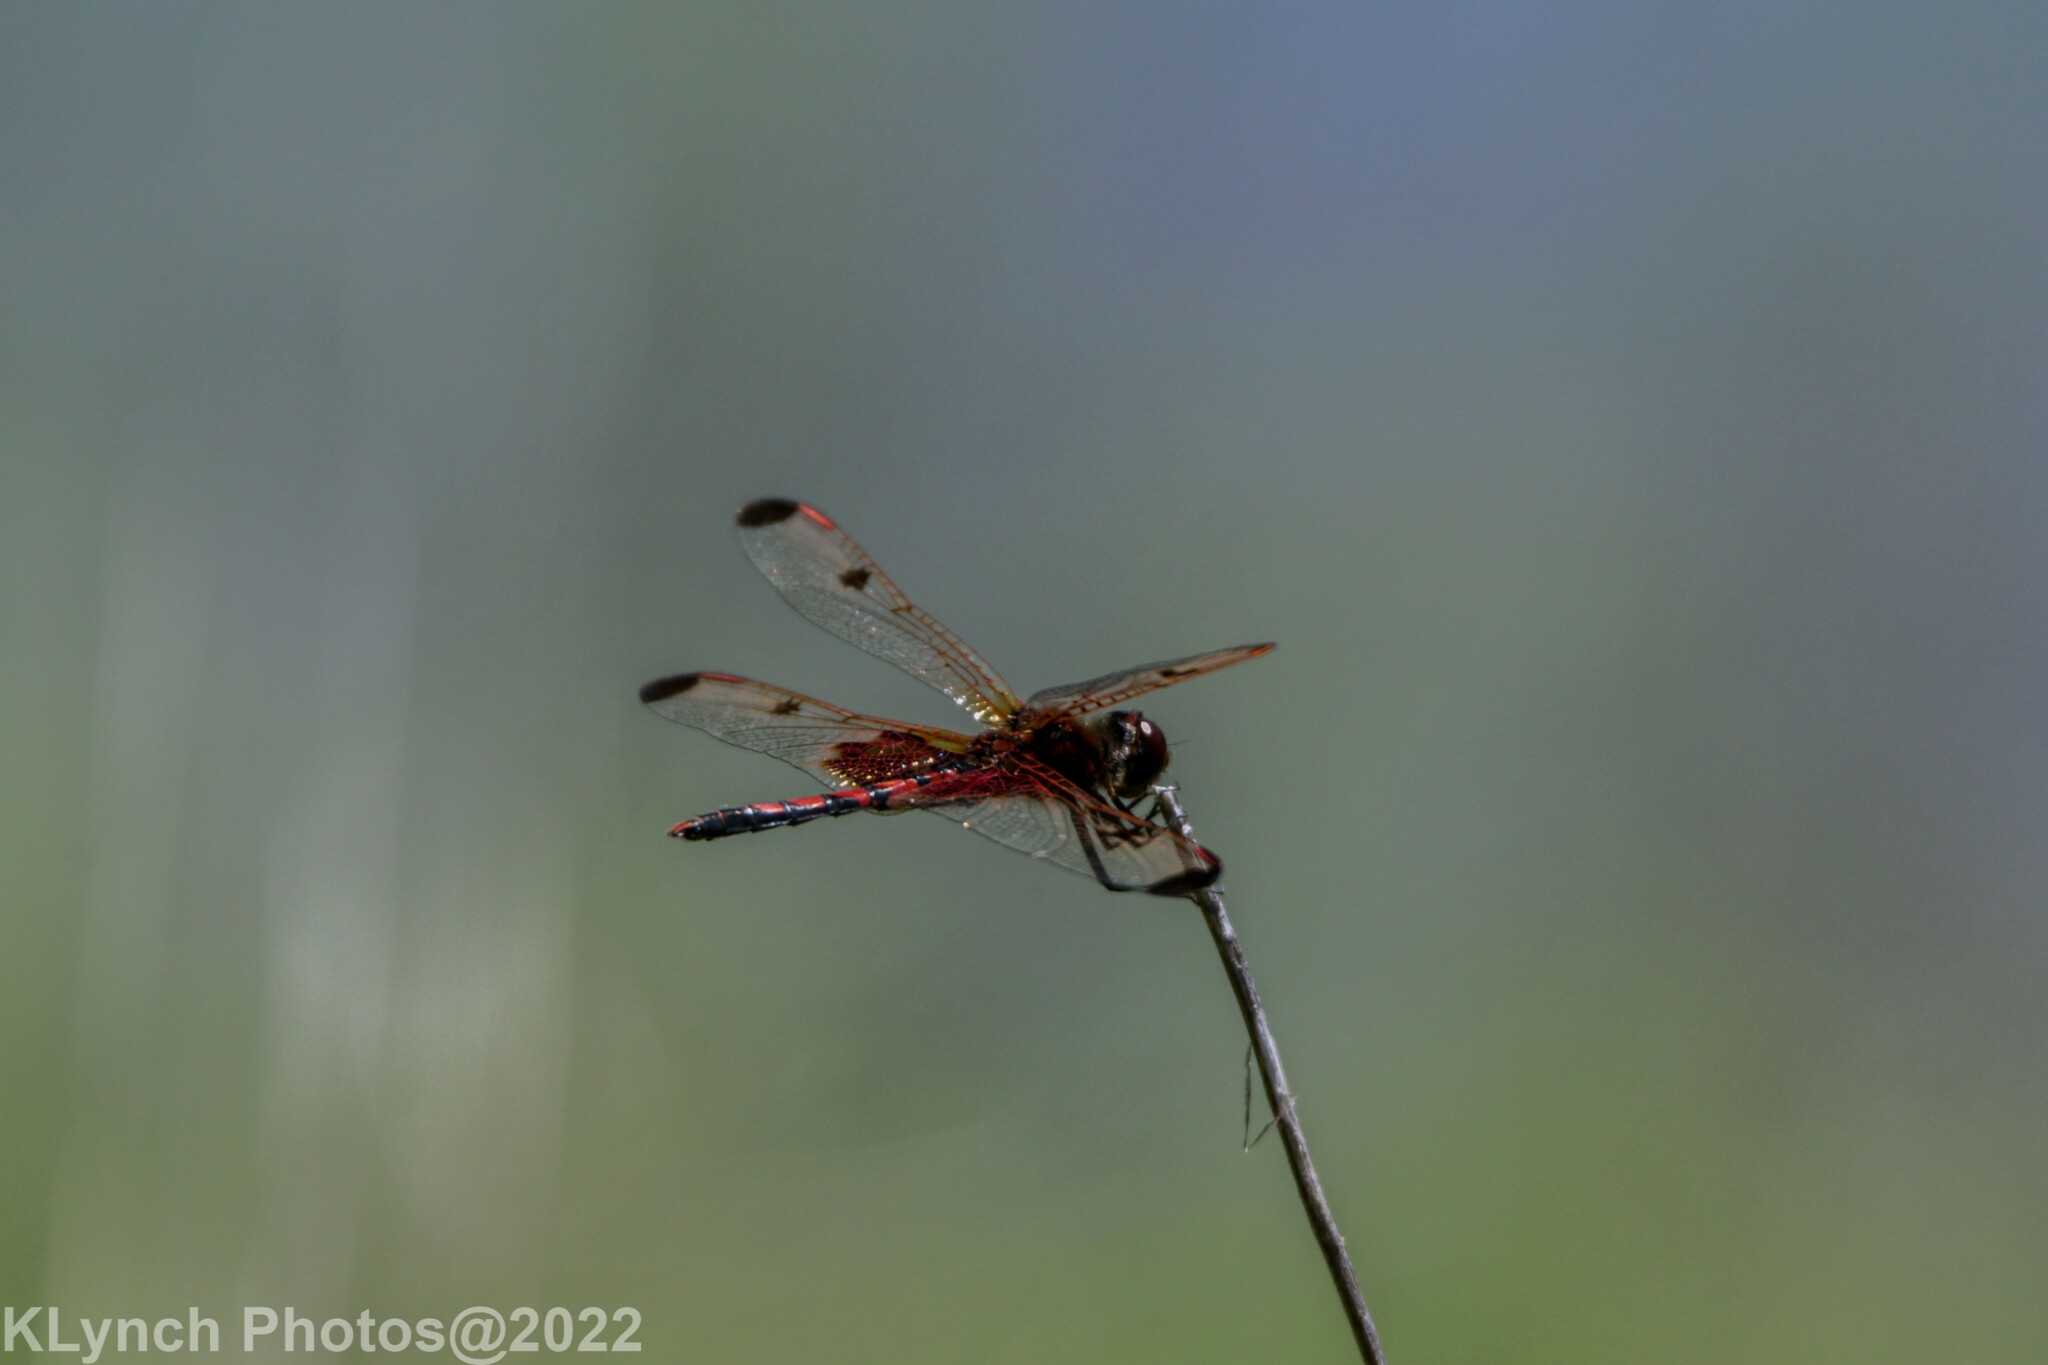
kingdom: Animalia
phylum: Arthropoda
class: Insecta
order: Odonata
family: Libellulidae
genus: Celithemis
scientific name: Celithemis elisa
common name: Calico pennant
